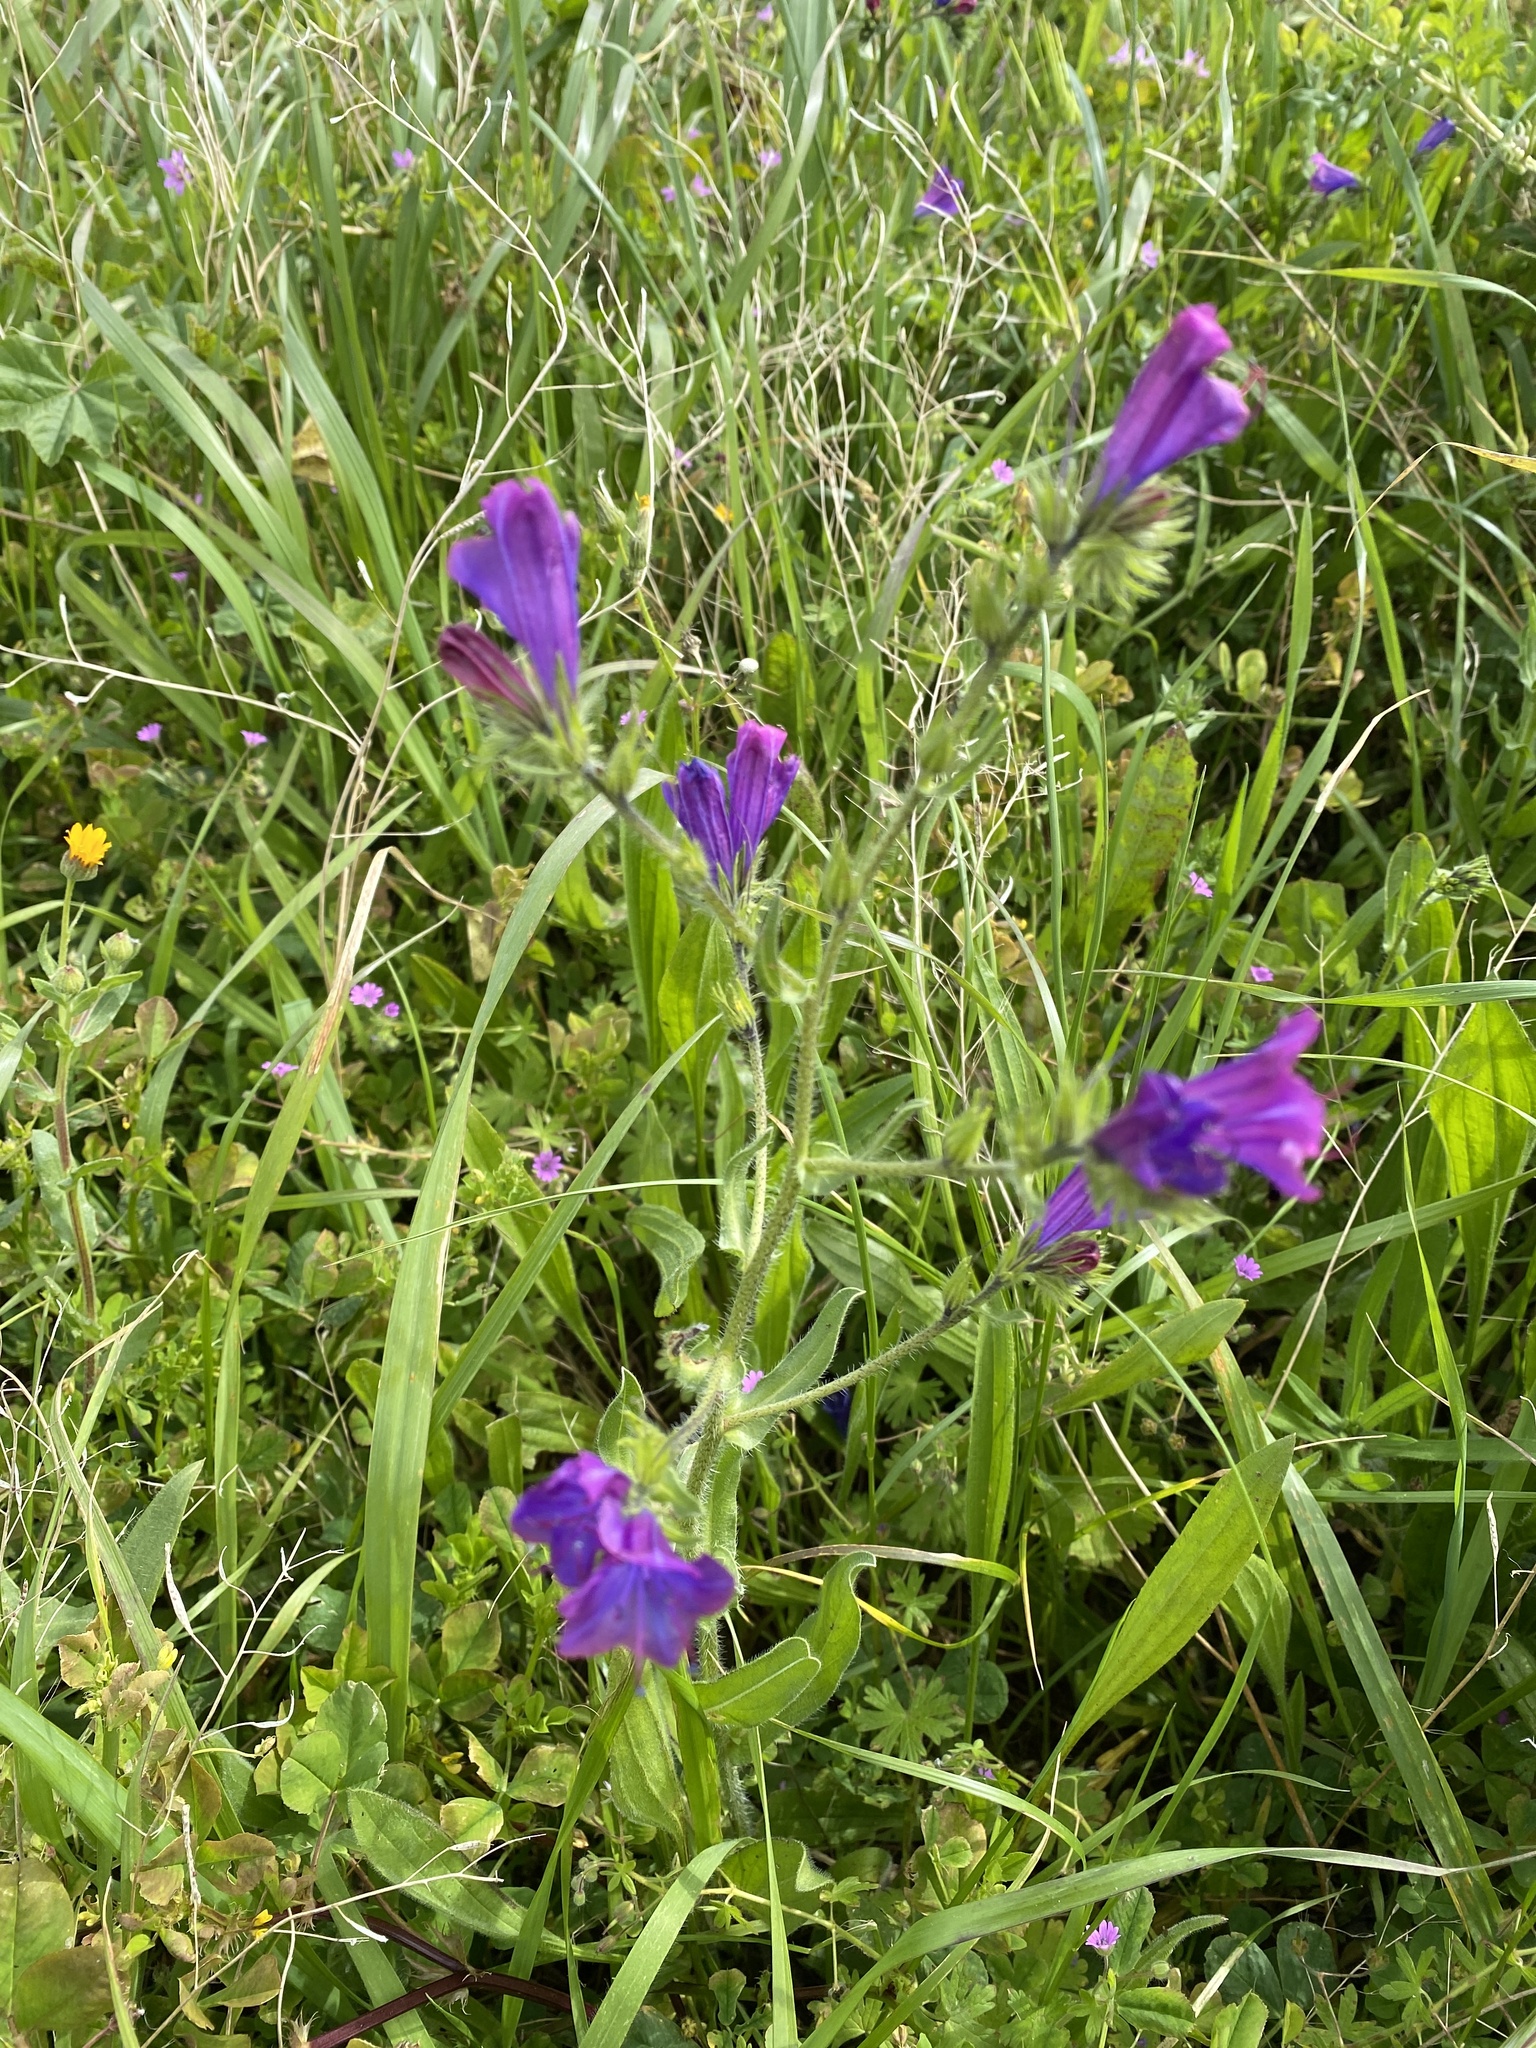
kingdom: Plantae
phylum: Tracheophyta
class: Magnoliopsida
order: Boraginales
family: Boraginaceae
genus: Echium
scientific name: Echium plantagineum
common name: Purple viper's-bugloss
